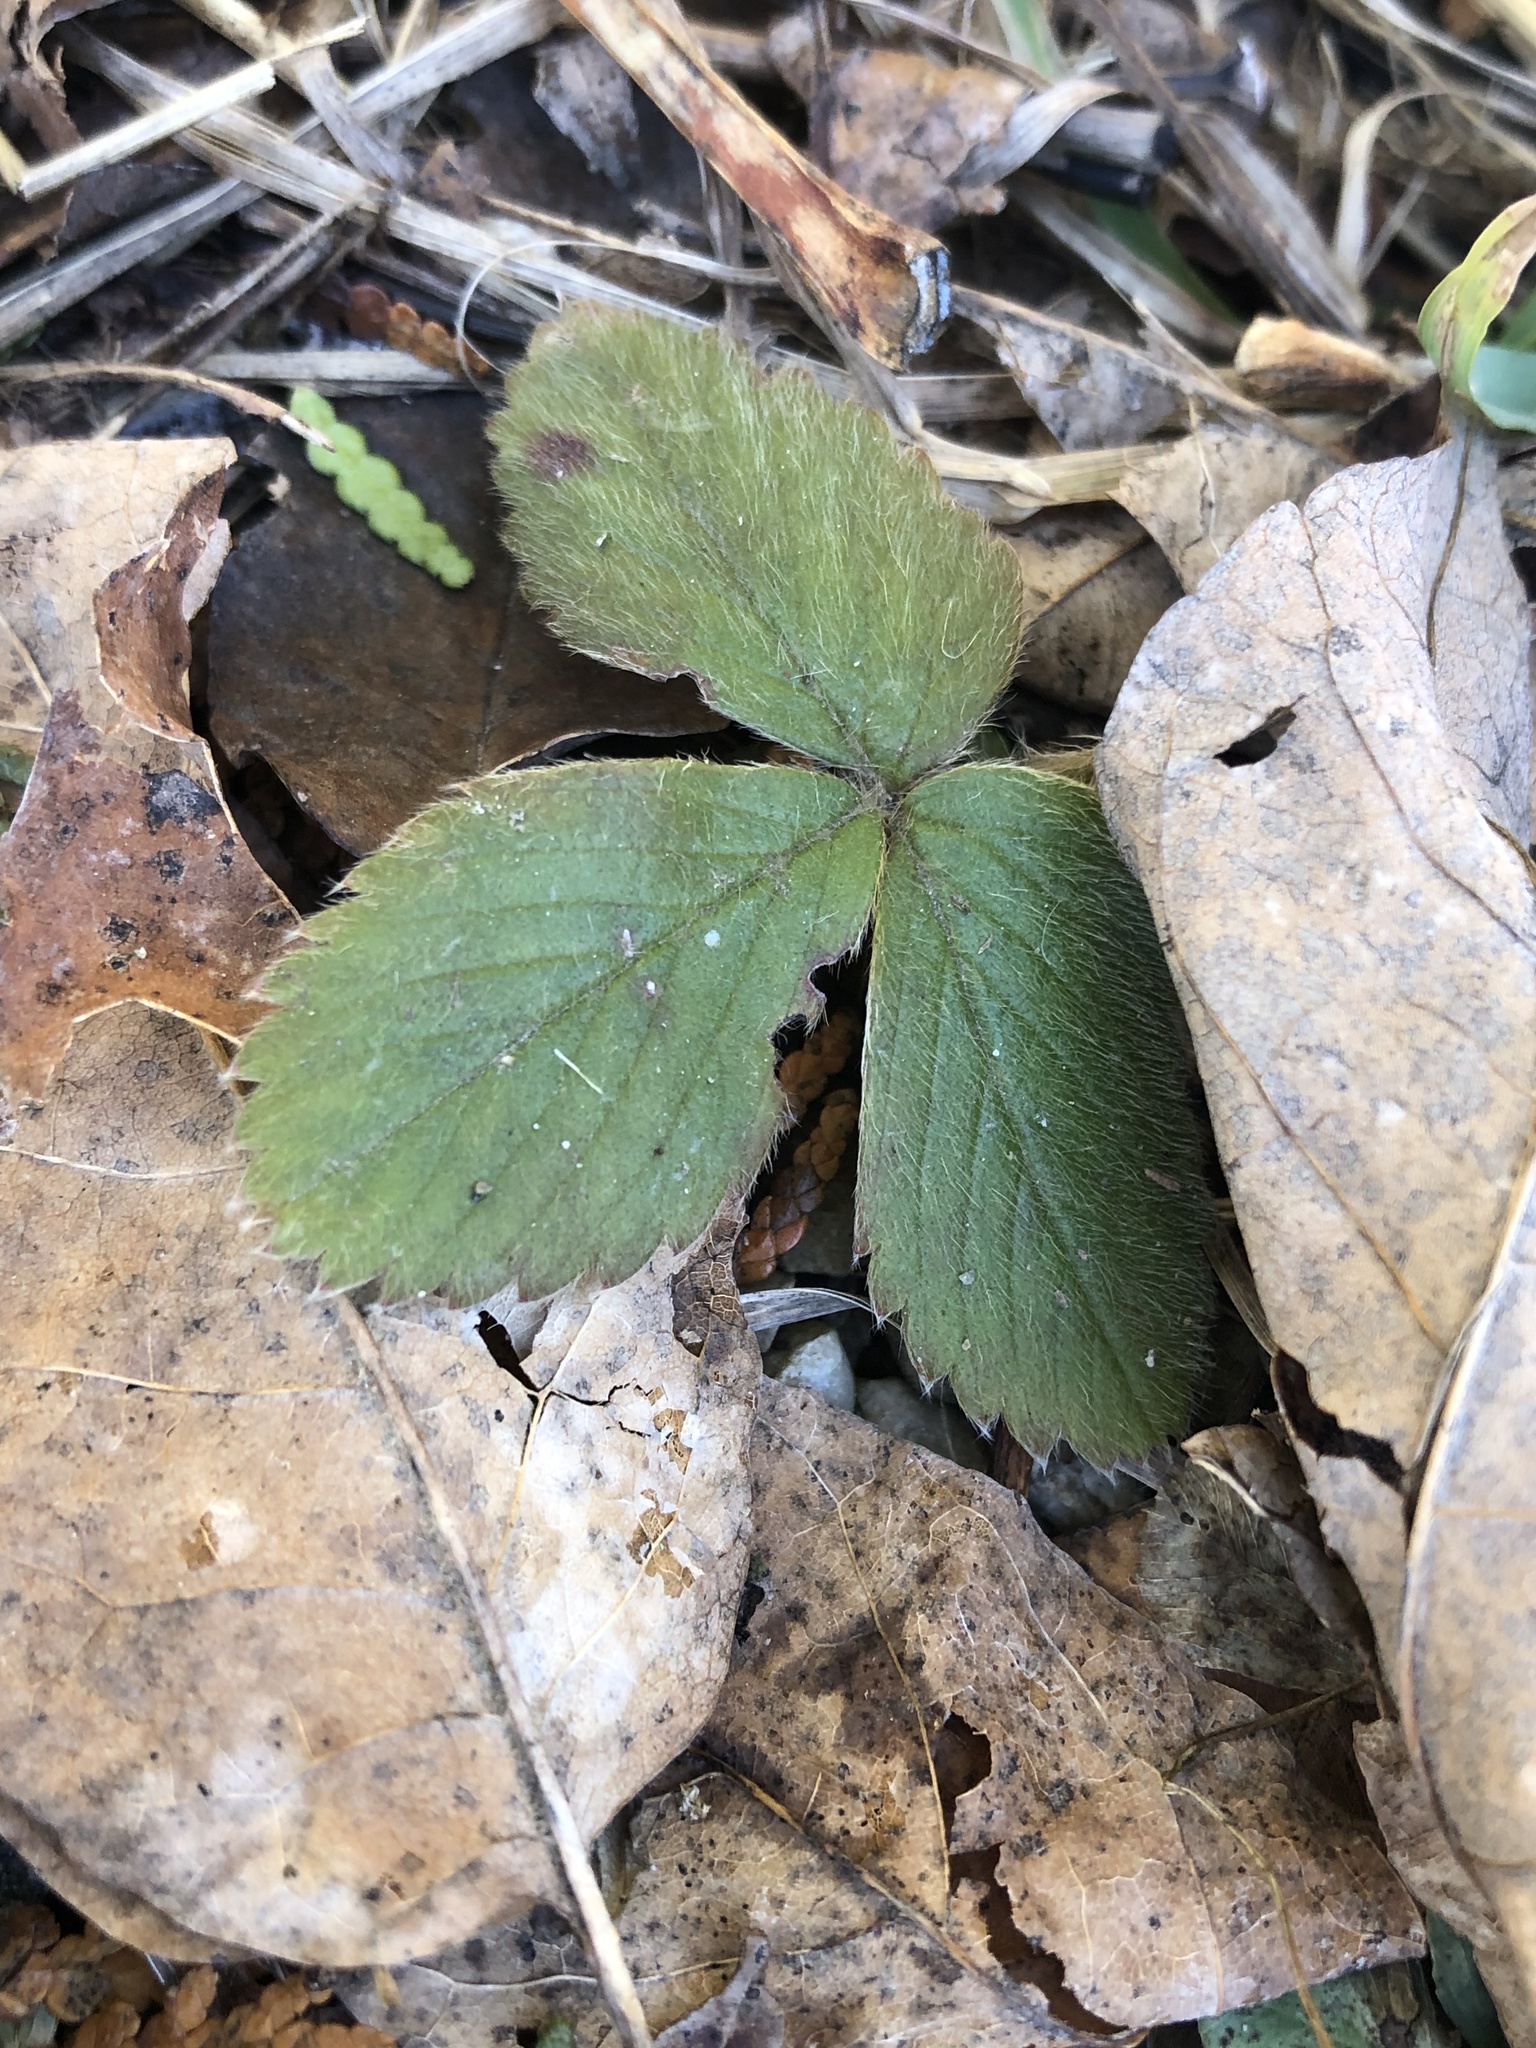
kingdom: Plantae
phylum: Tracheophyta
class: Magnoliopsida
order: Rosales
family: Rosaceae
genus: Fragaria
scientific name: Fragaria virginiana
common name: Thickleaved wild strawberry
